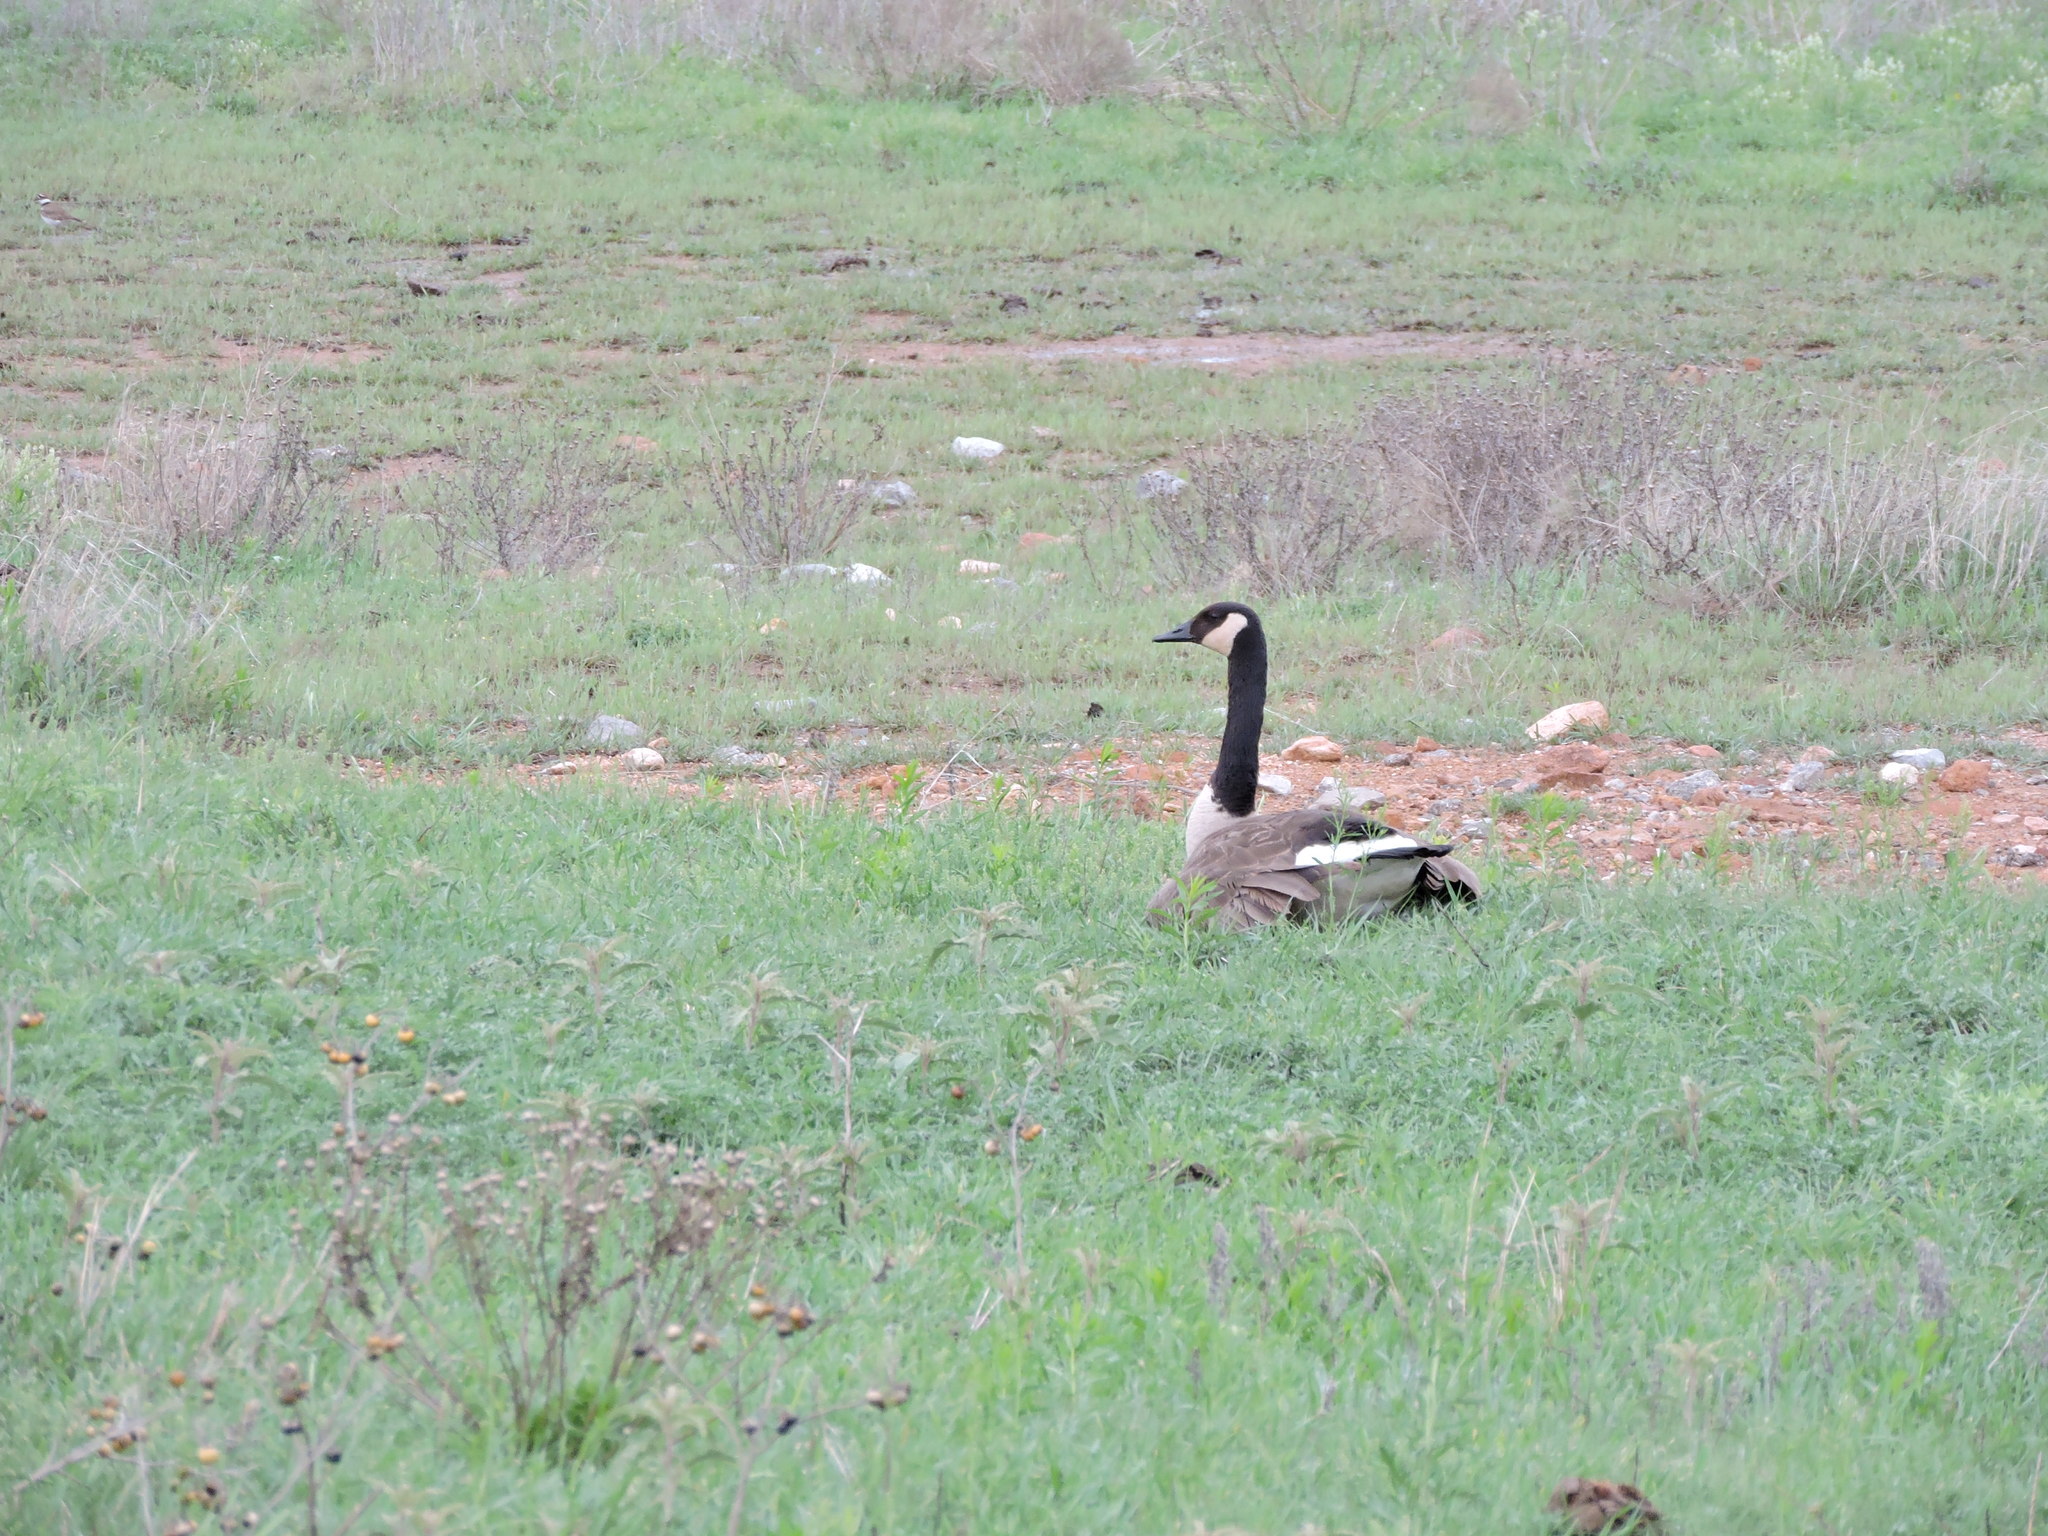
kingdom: Animalia
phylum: Chordata
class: Aves
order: Anseriformes
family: Anatidae
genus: Branta
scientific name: Branta canadensis
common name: Canada goose
